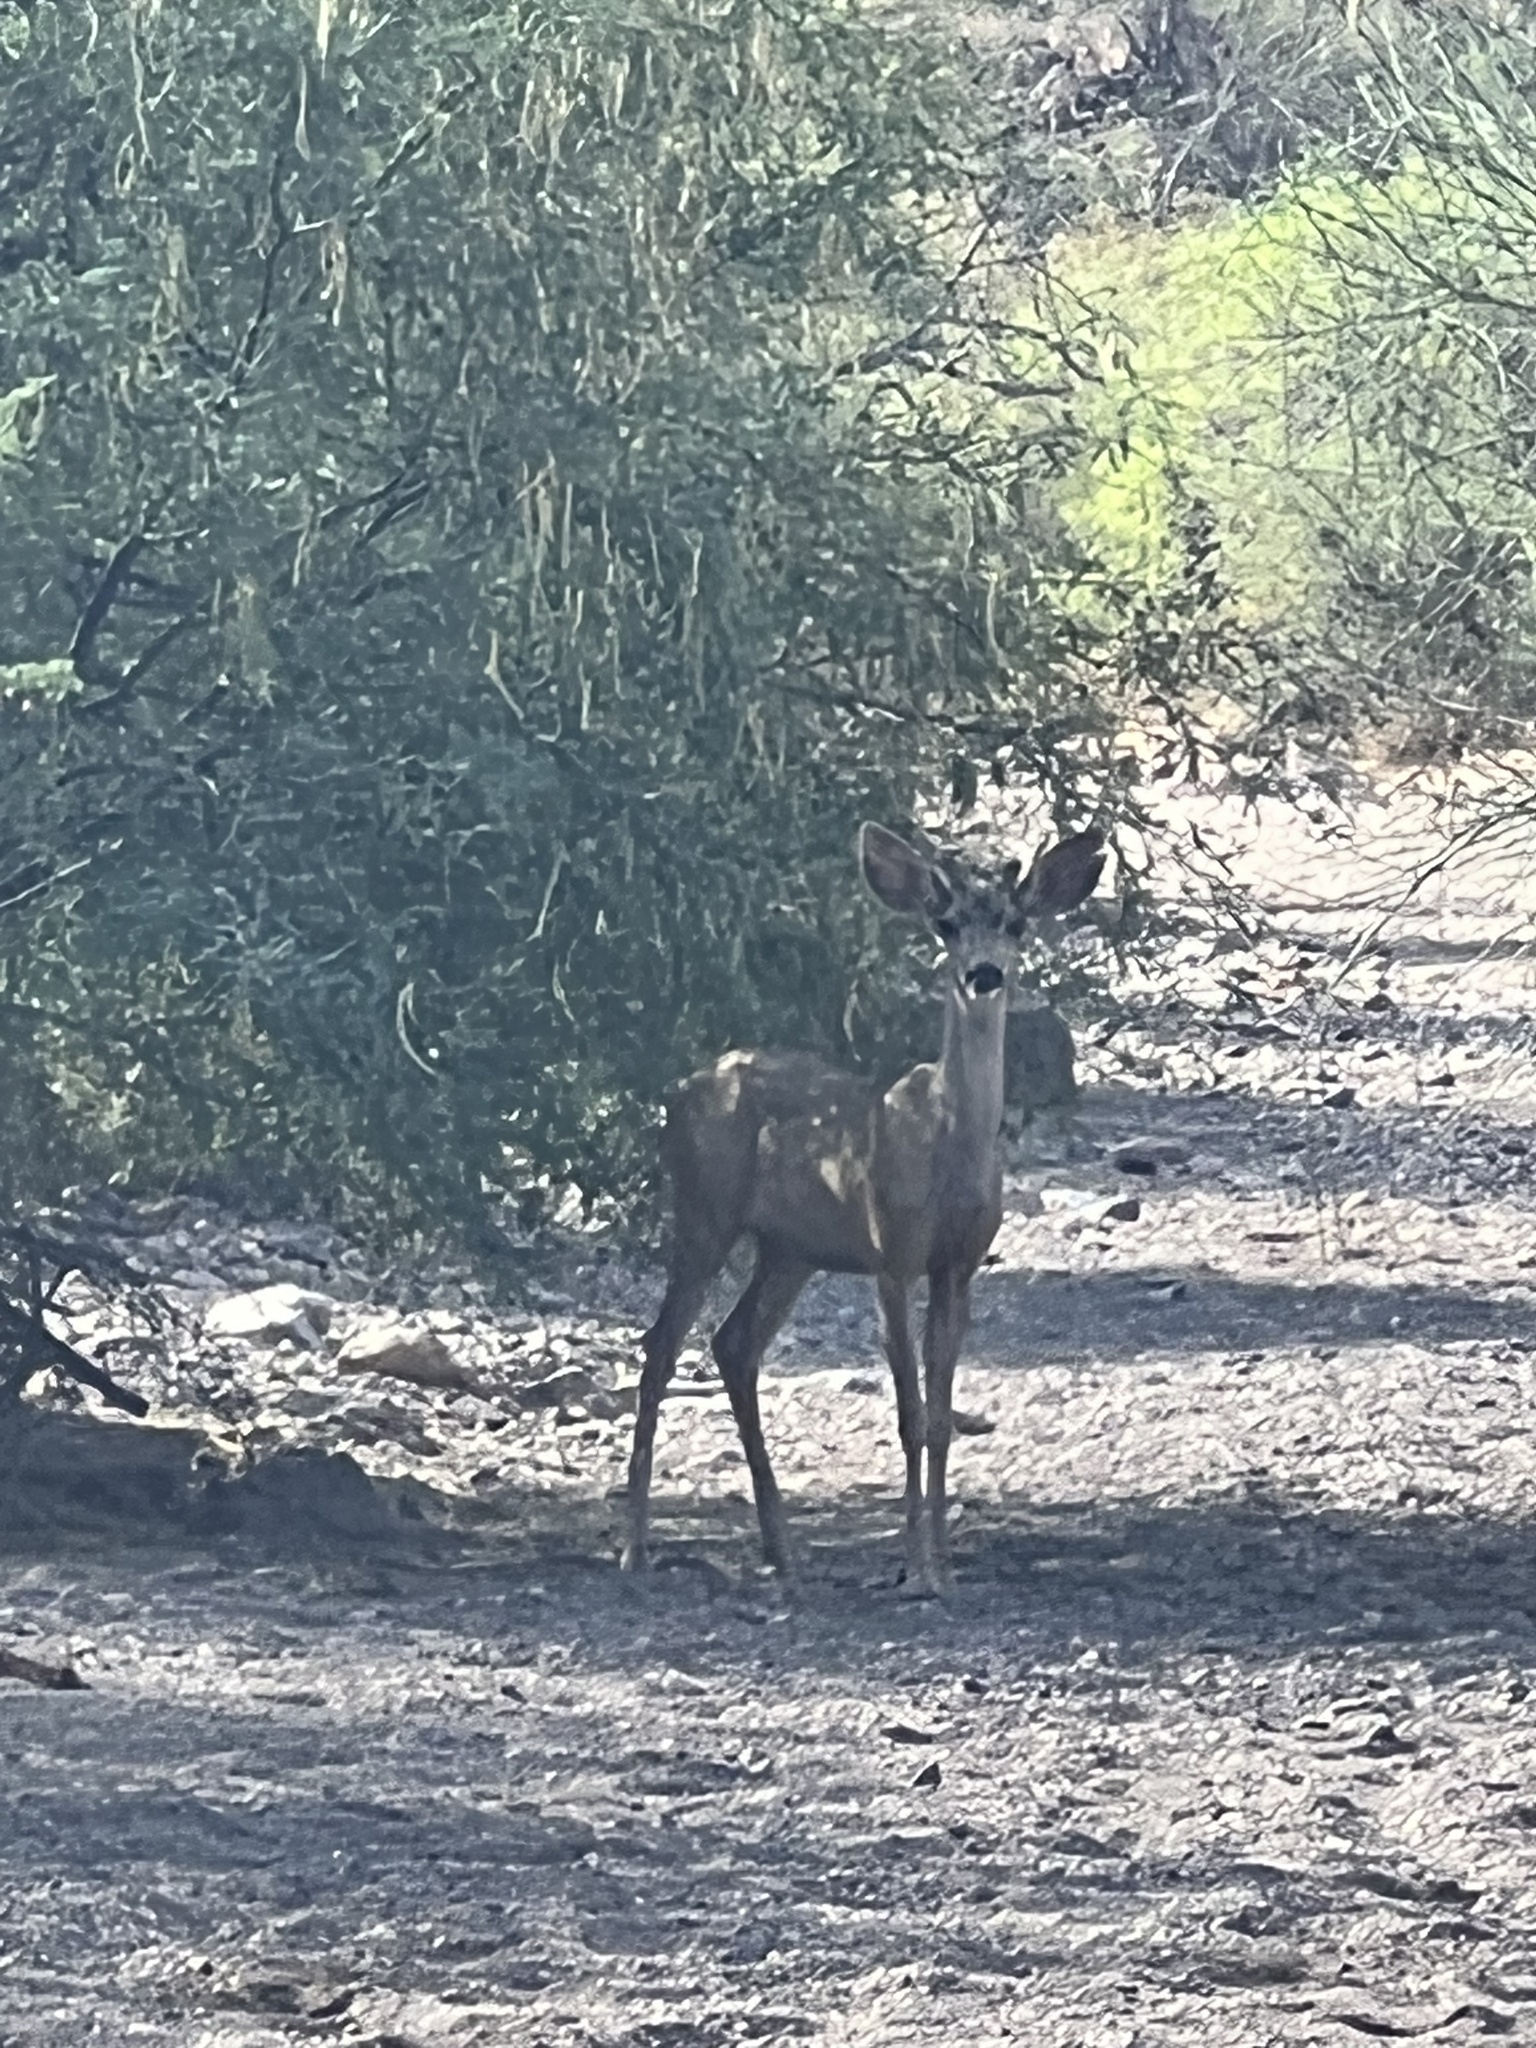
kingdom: Animalia
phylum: Chordata
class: Mammalia
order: Artiodactyla
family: Cervidae
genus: Odocoileus
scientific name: Odocoileus hemionus
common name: Mule deer
